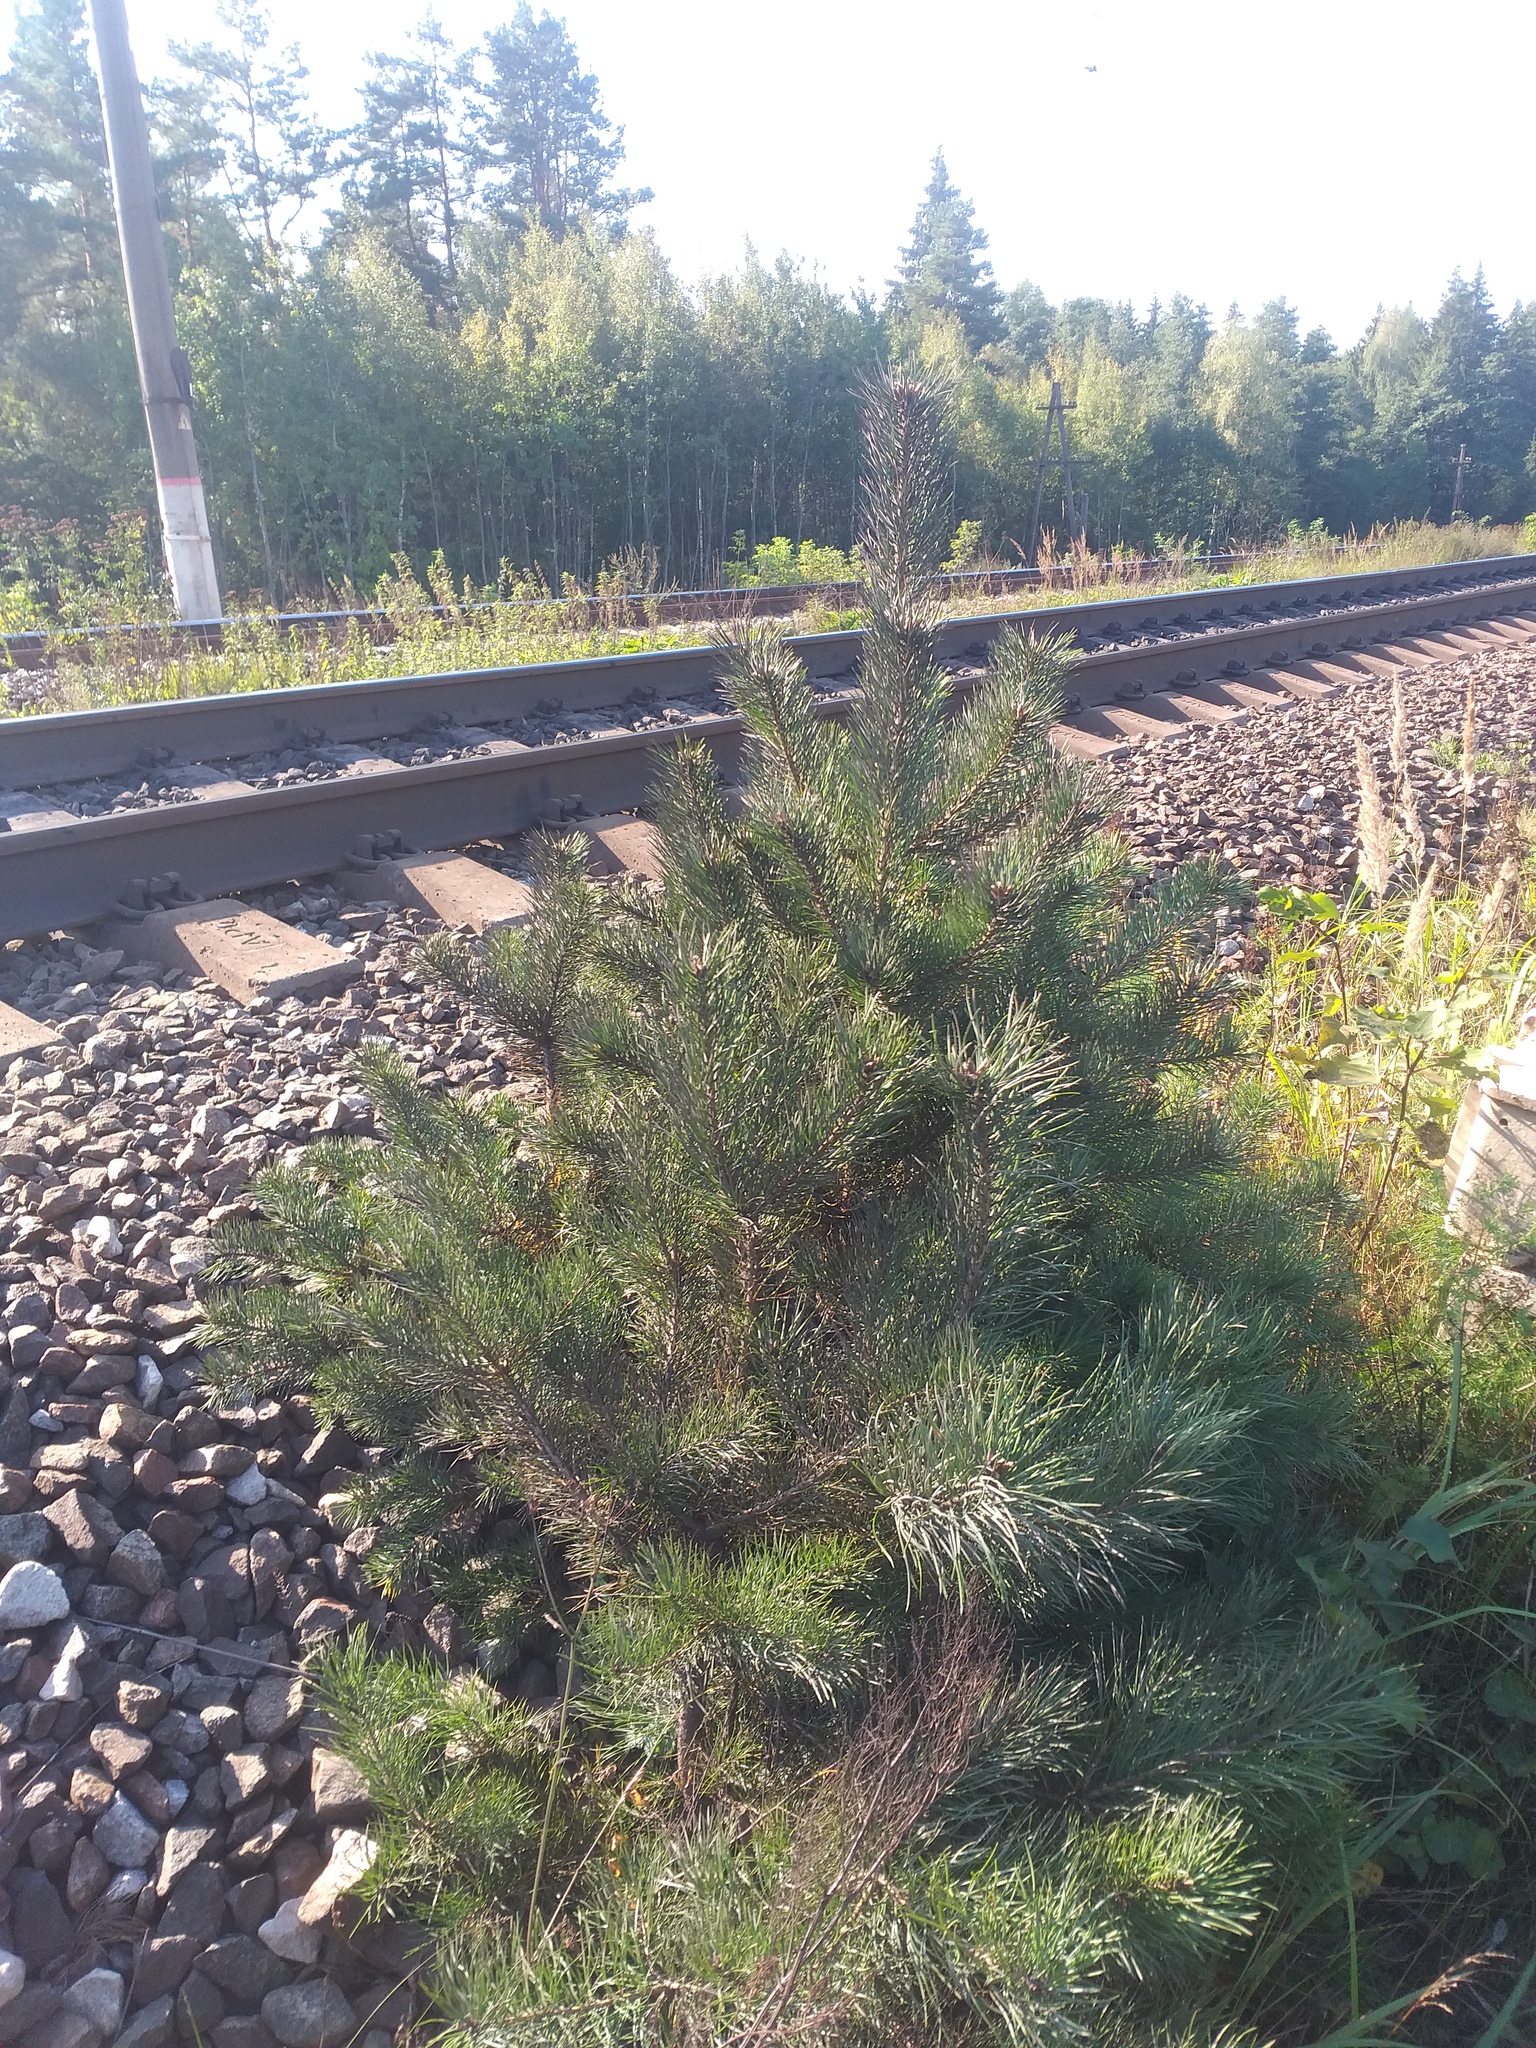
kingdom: Plantae
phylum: Tracheophyta
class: Pinopsida
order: Pinales
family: Pinaceae
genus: Pinus
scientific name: Pinus sylvestris
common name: Scots pine
